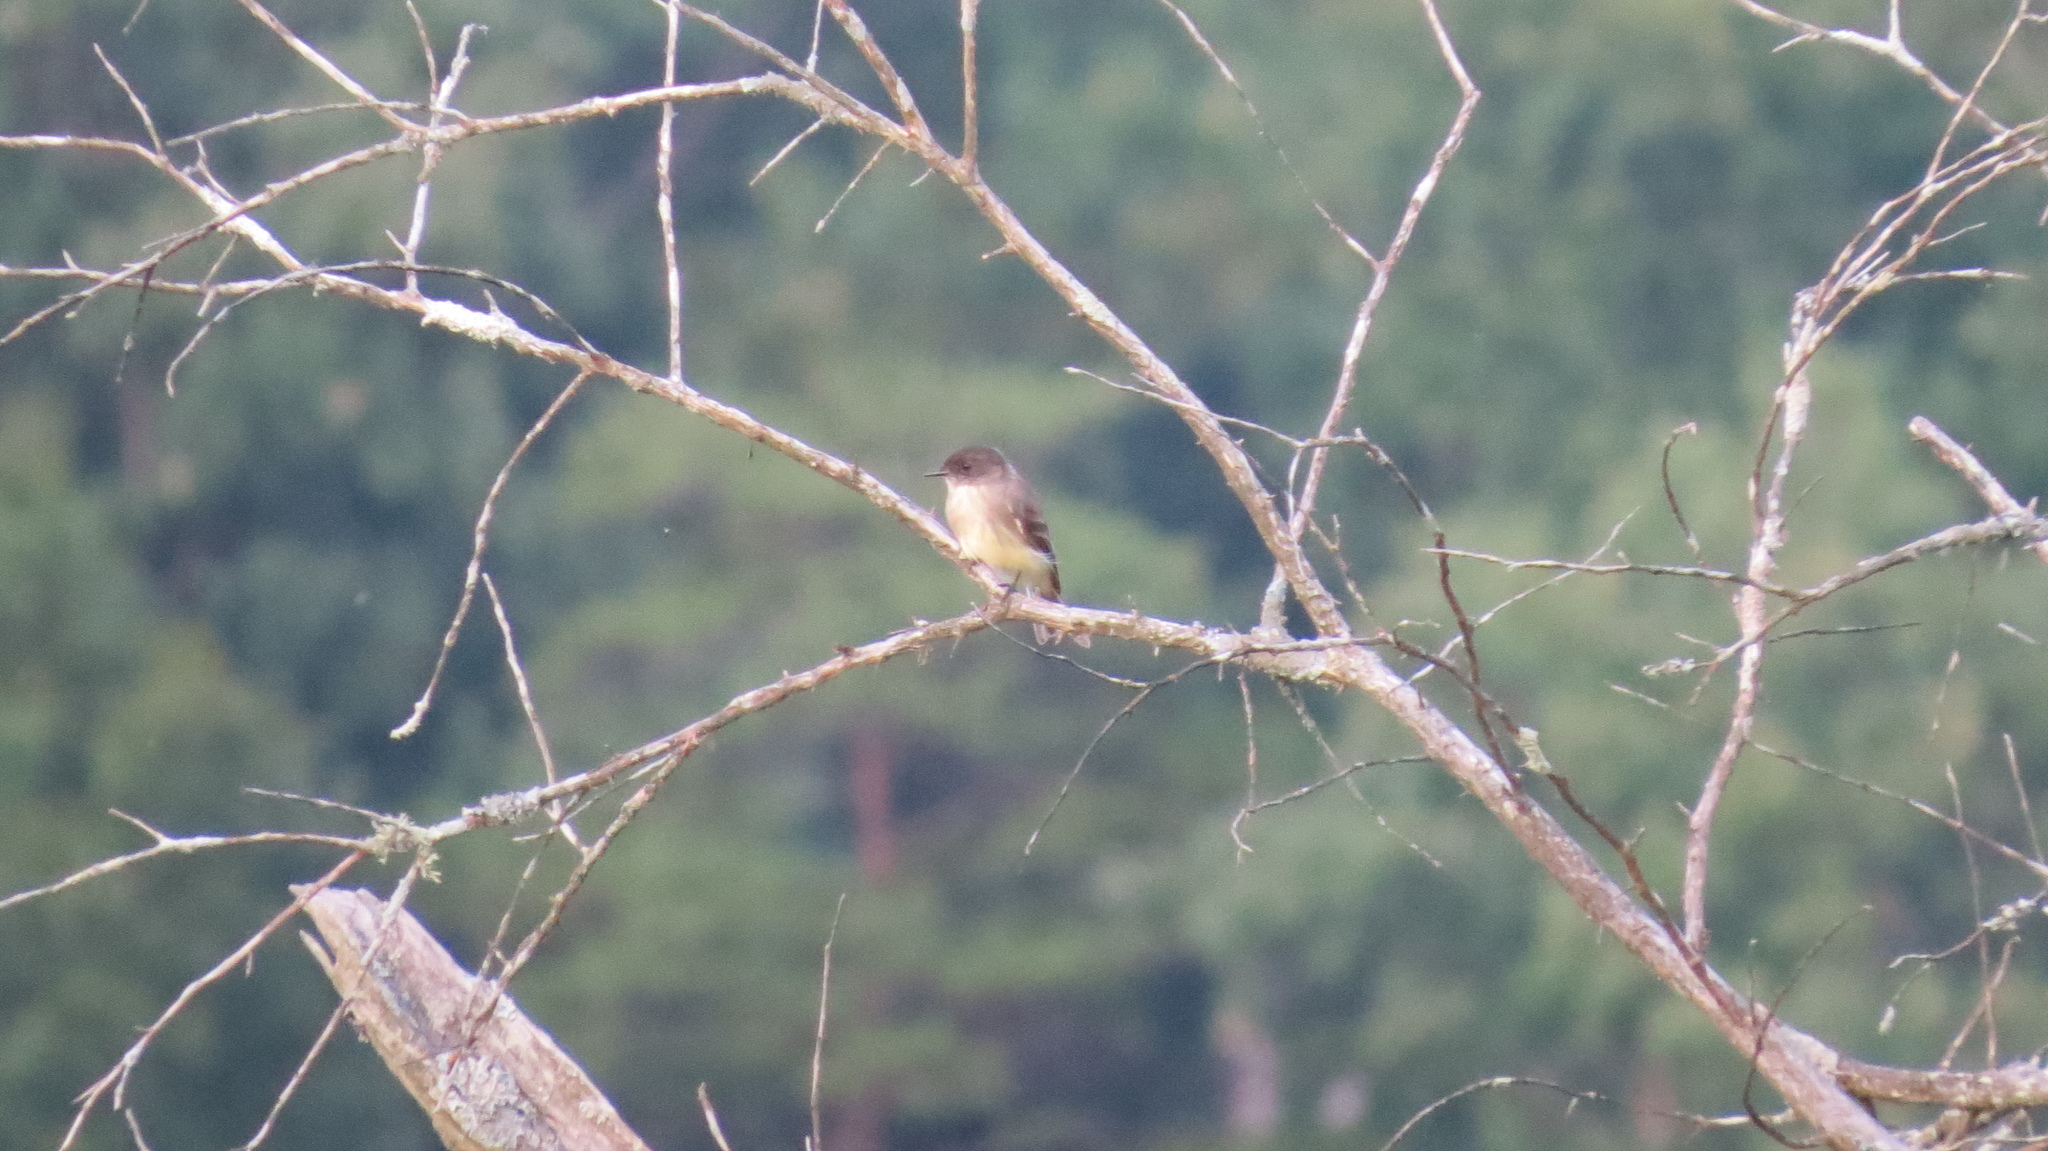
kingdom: Animalia
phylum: Chordata
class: Aves
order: Passeriformes
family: Tyrannidae
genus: Sayornis
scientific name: Sayornis phoebe
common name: Eastern phoebe
